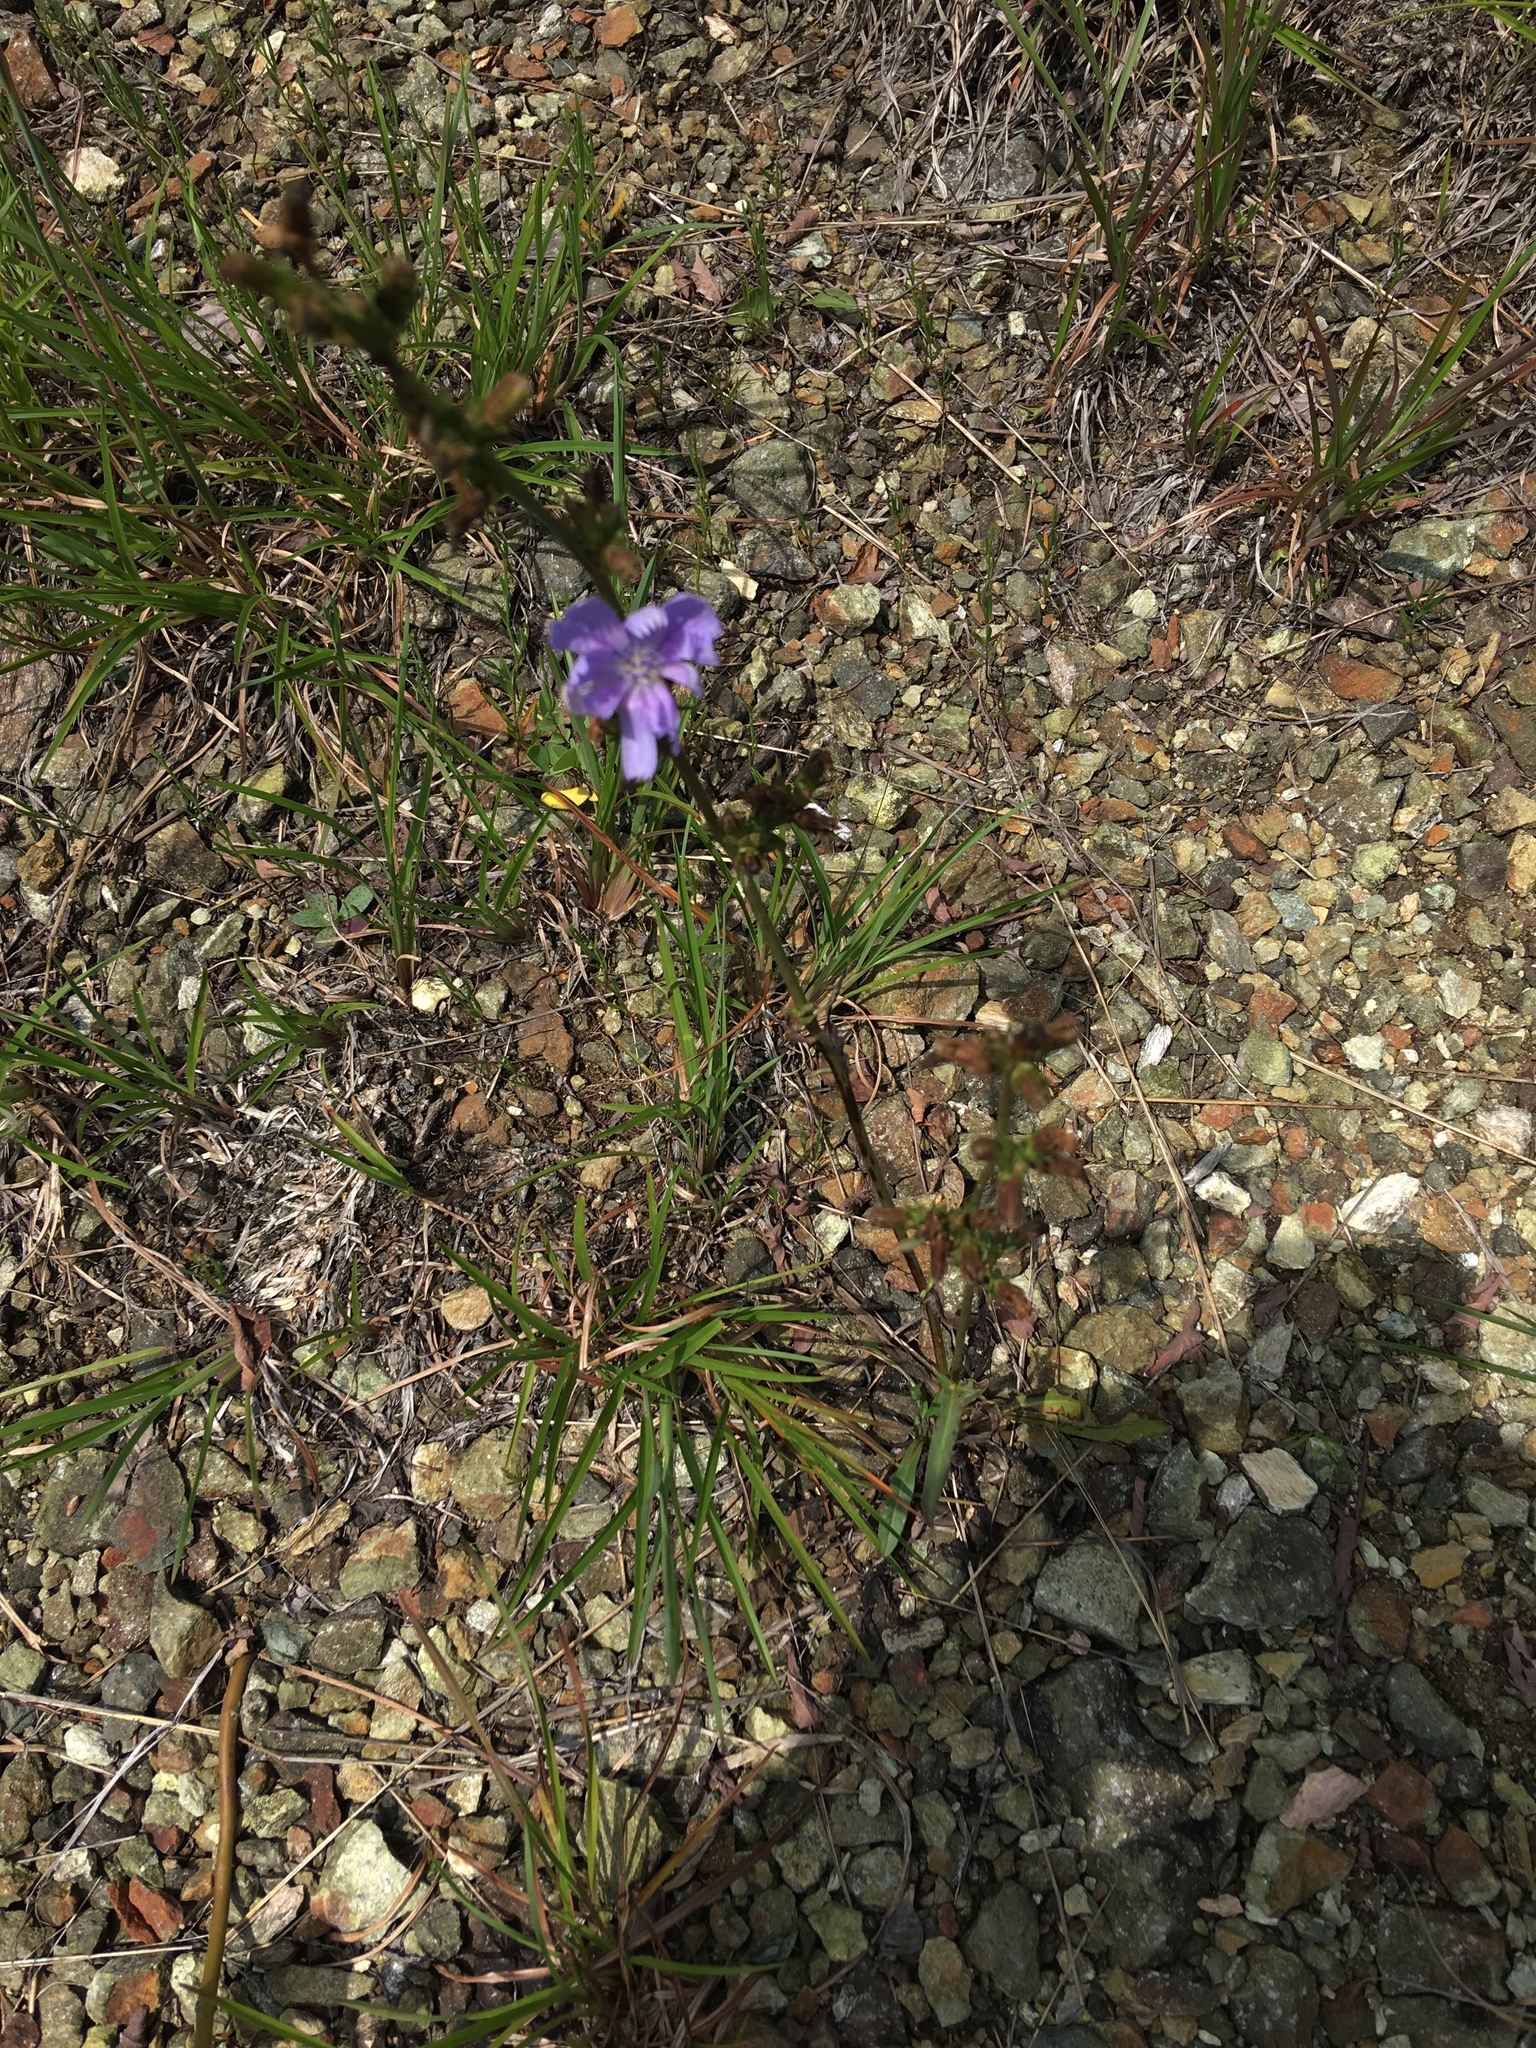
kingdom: Plantae
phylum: Tracheophyta
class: Magnoliopsida
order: Asterales
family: Asteraceae
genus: Cichorium
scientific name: Cichorium intybus
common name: Chicory
